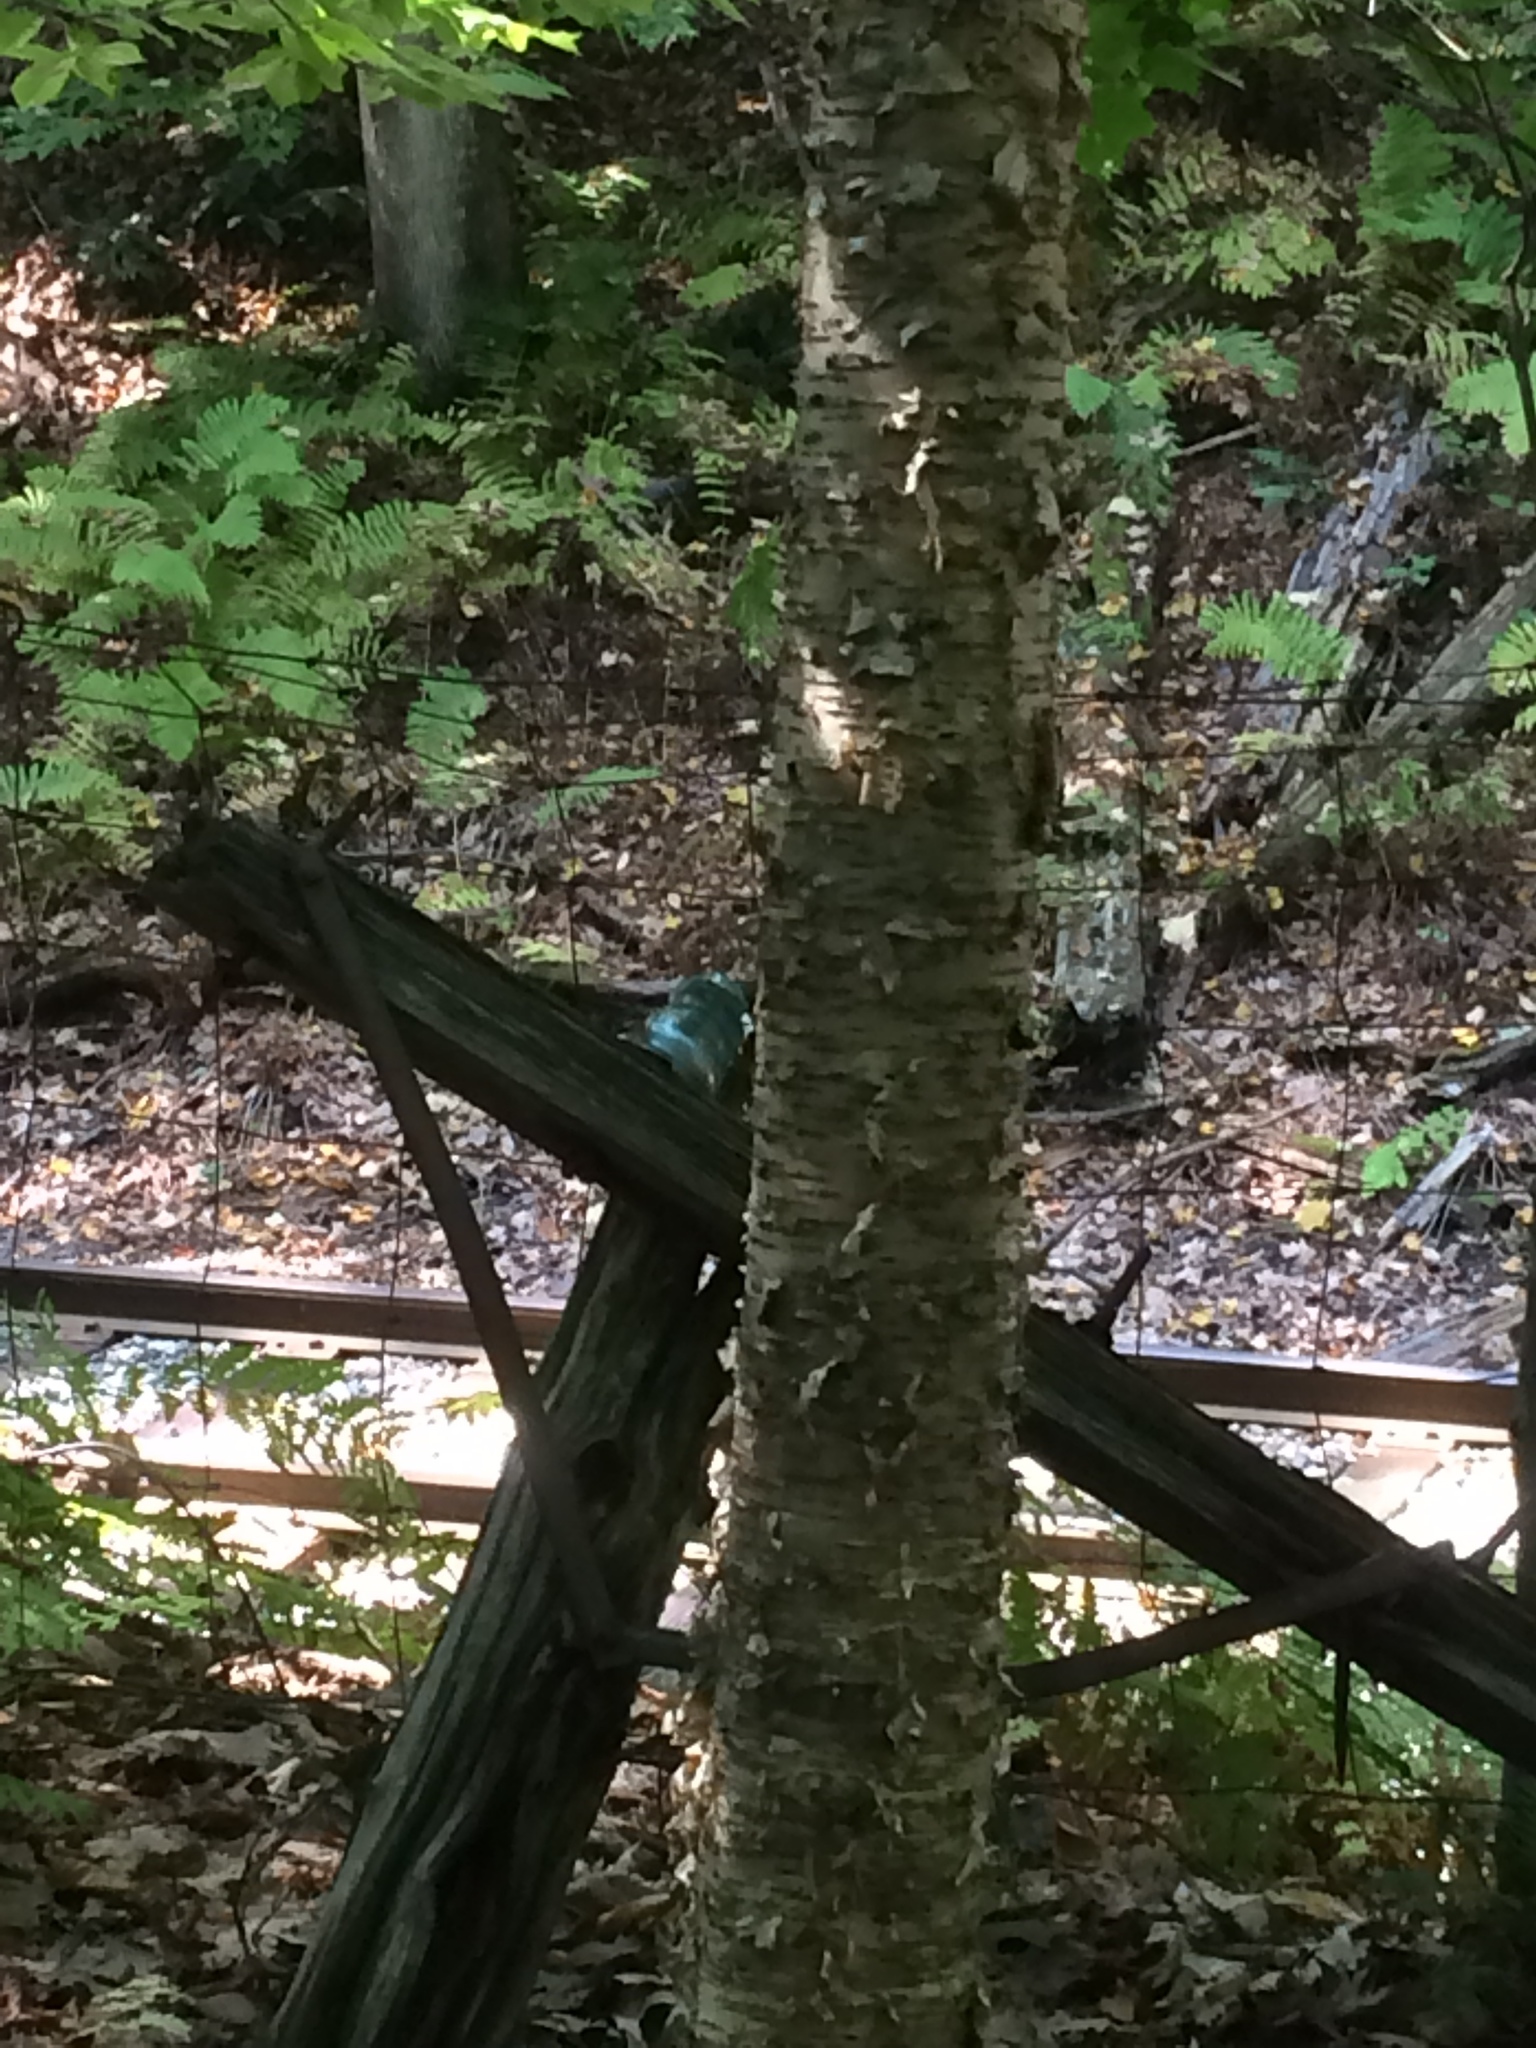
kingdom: Plantae
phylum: Tracheophyta
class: Magnoliopsida
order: Fagales
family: Betulaceae
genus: Betula
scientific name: Betula alleghaniensis
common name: Yellow birch
